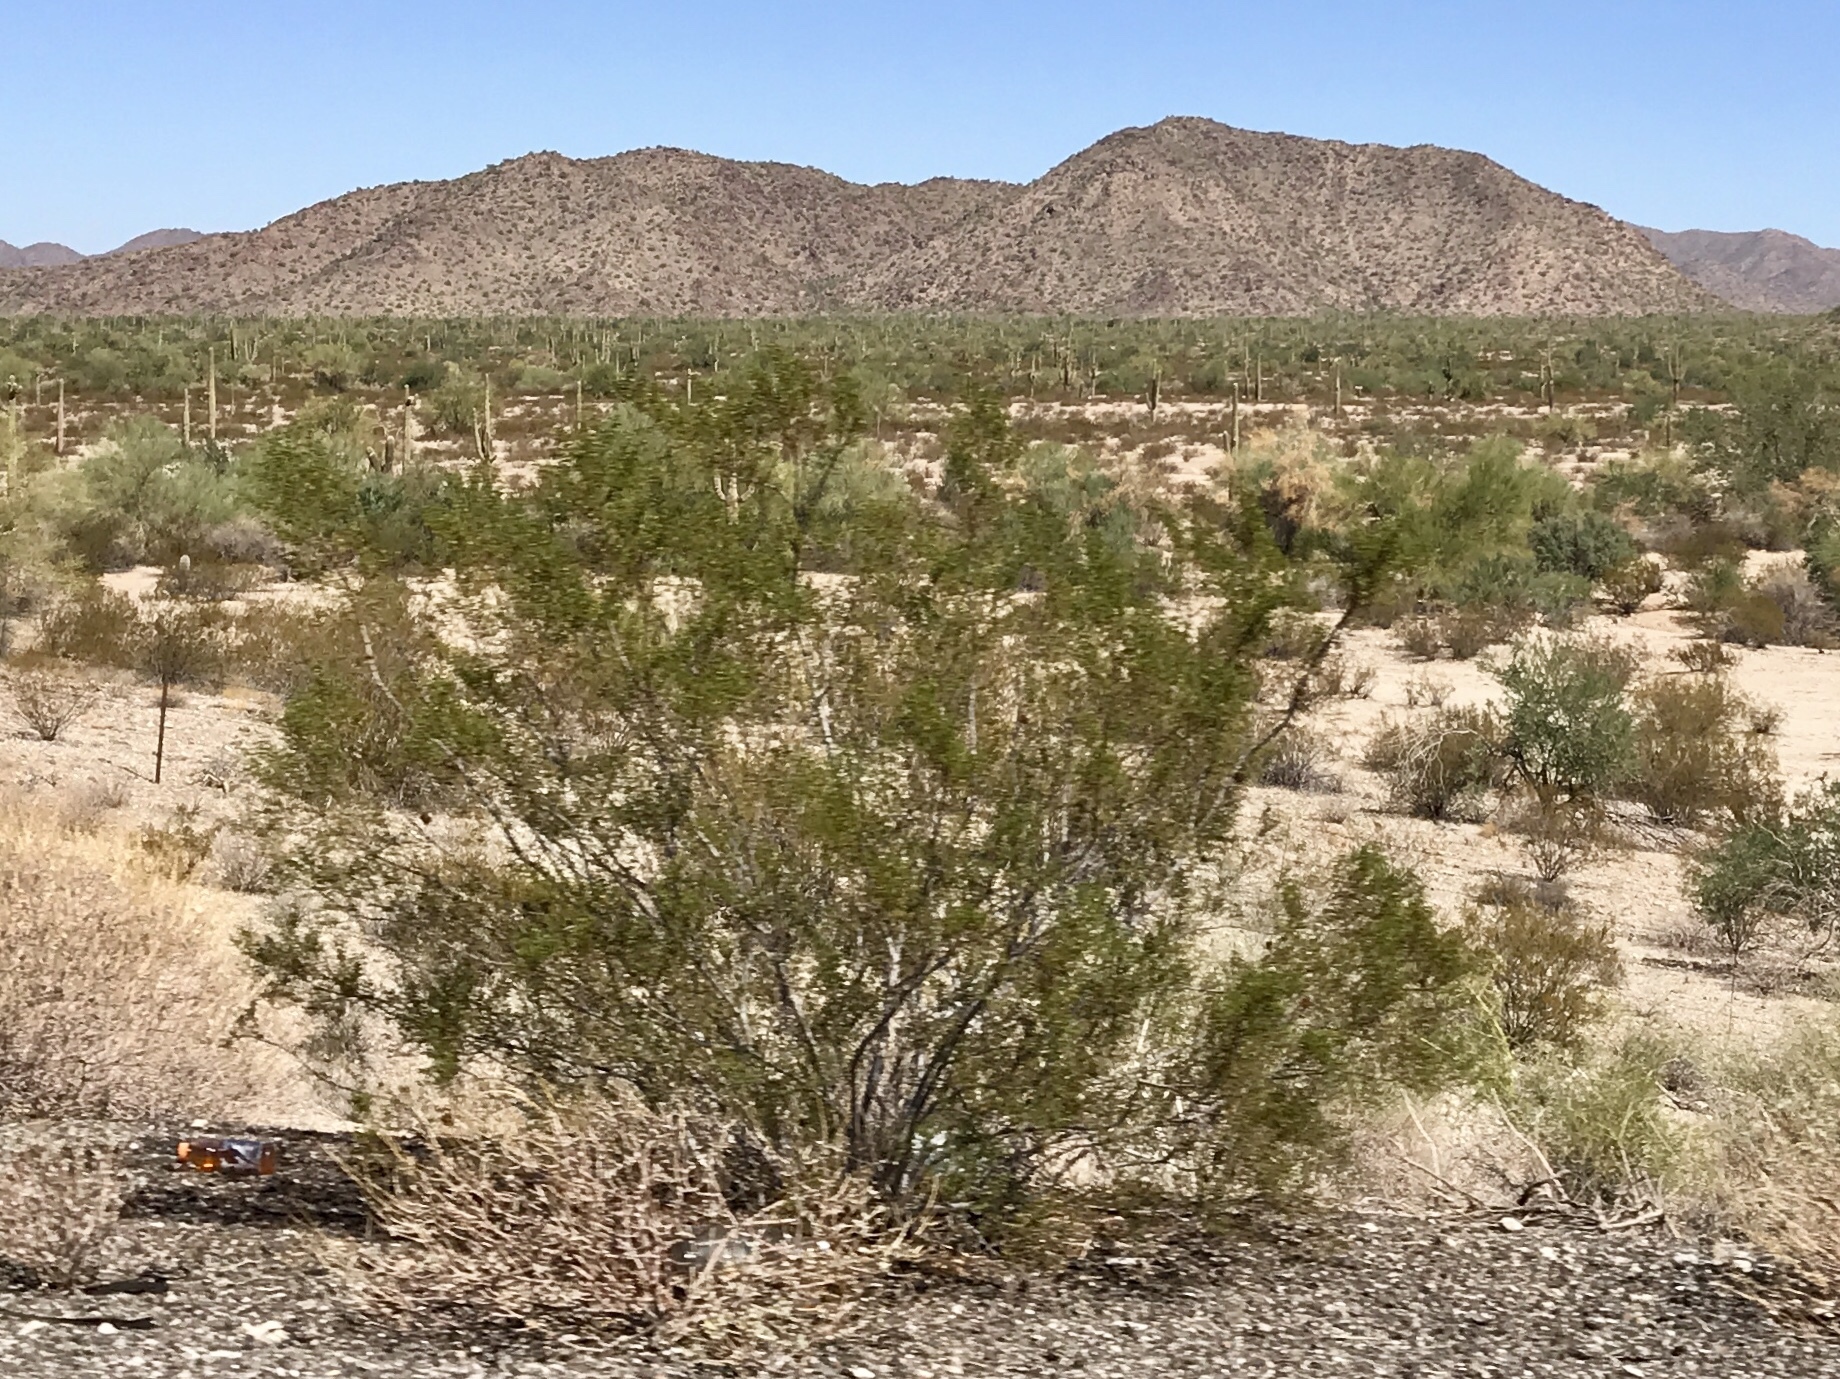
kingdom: Plantae
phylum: Tracheophyta
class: Magnoliopsida
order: Zygophyllales
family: Zygophyllaceae
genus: Larrea
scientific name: Larrea tridentata
